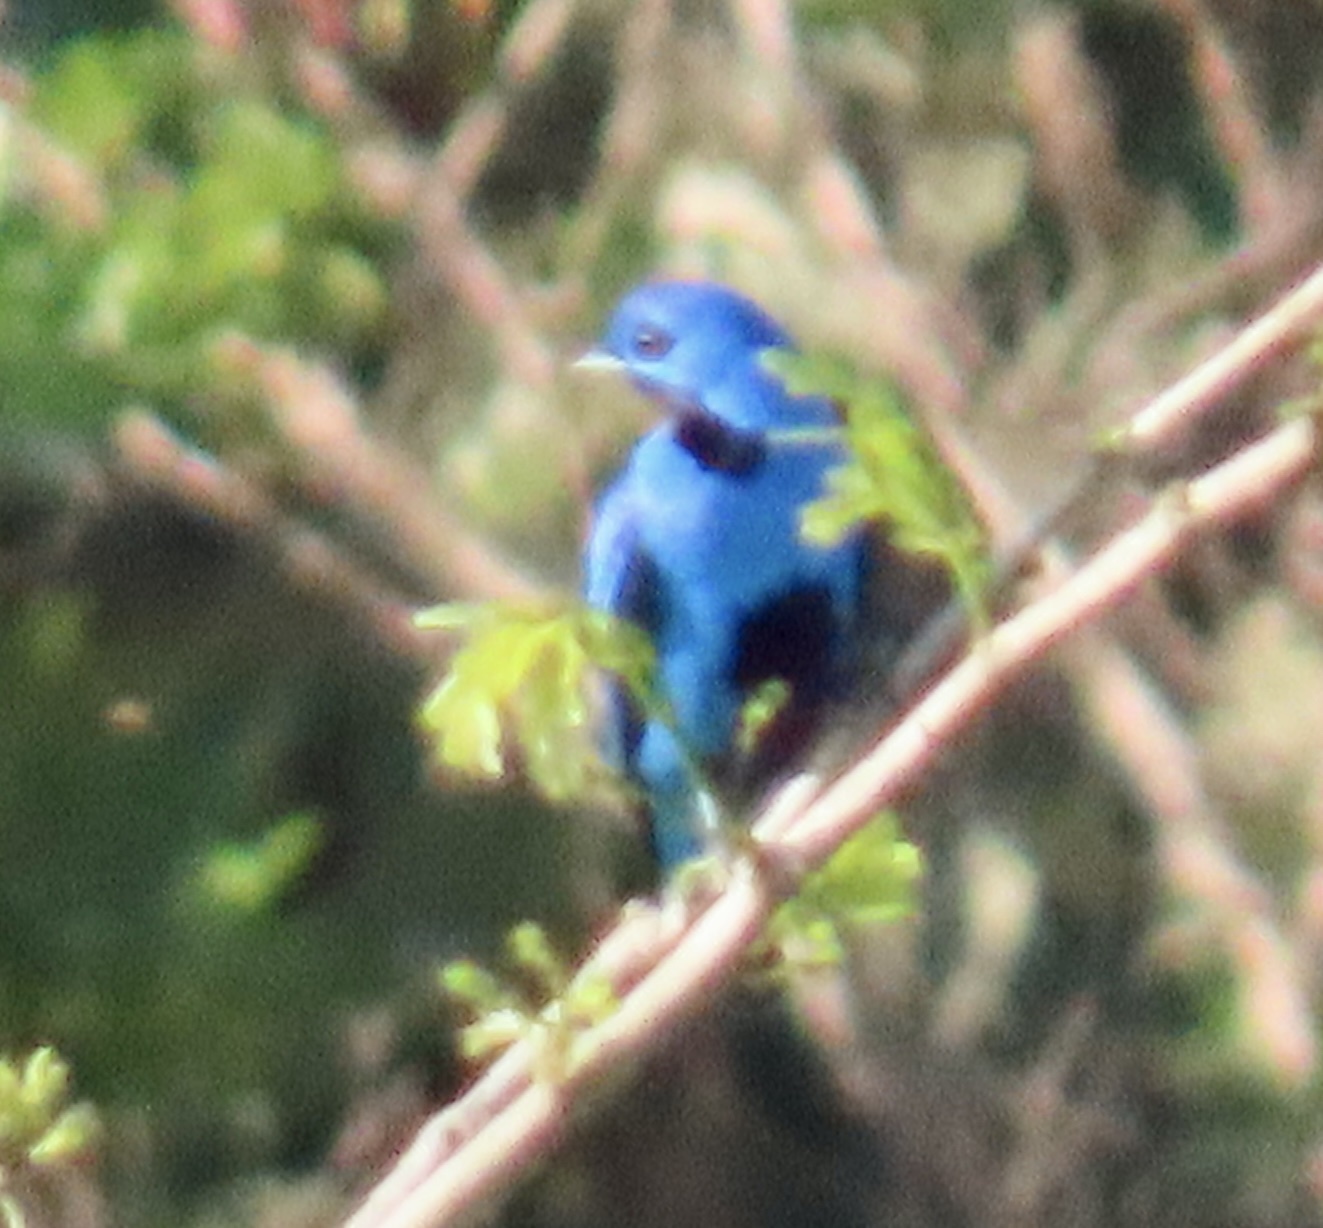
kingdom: Animalia
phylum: Chordata
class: Aves
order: Passeriformes
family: Cotingidae
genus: Cotinga
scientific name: Cotinga nattererii
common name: Blue cotinga
